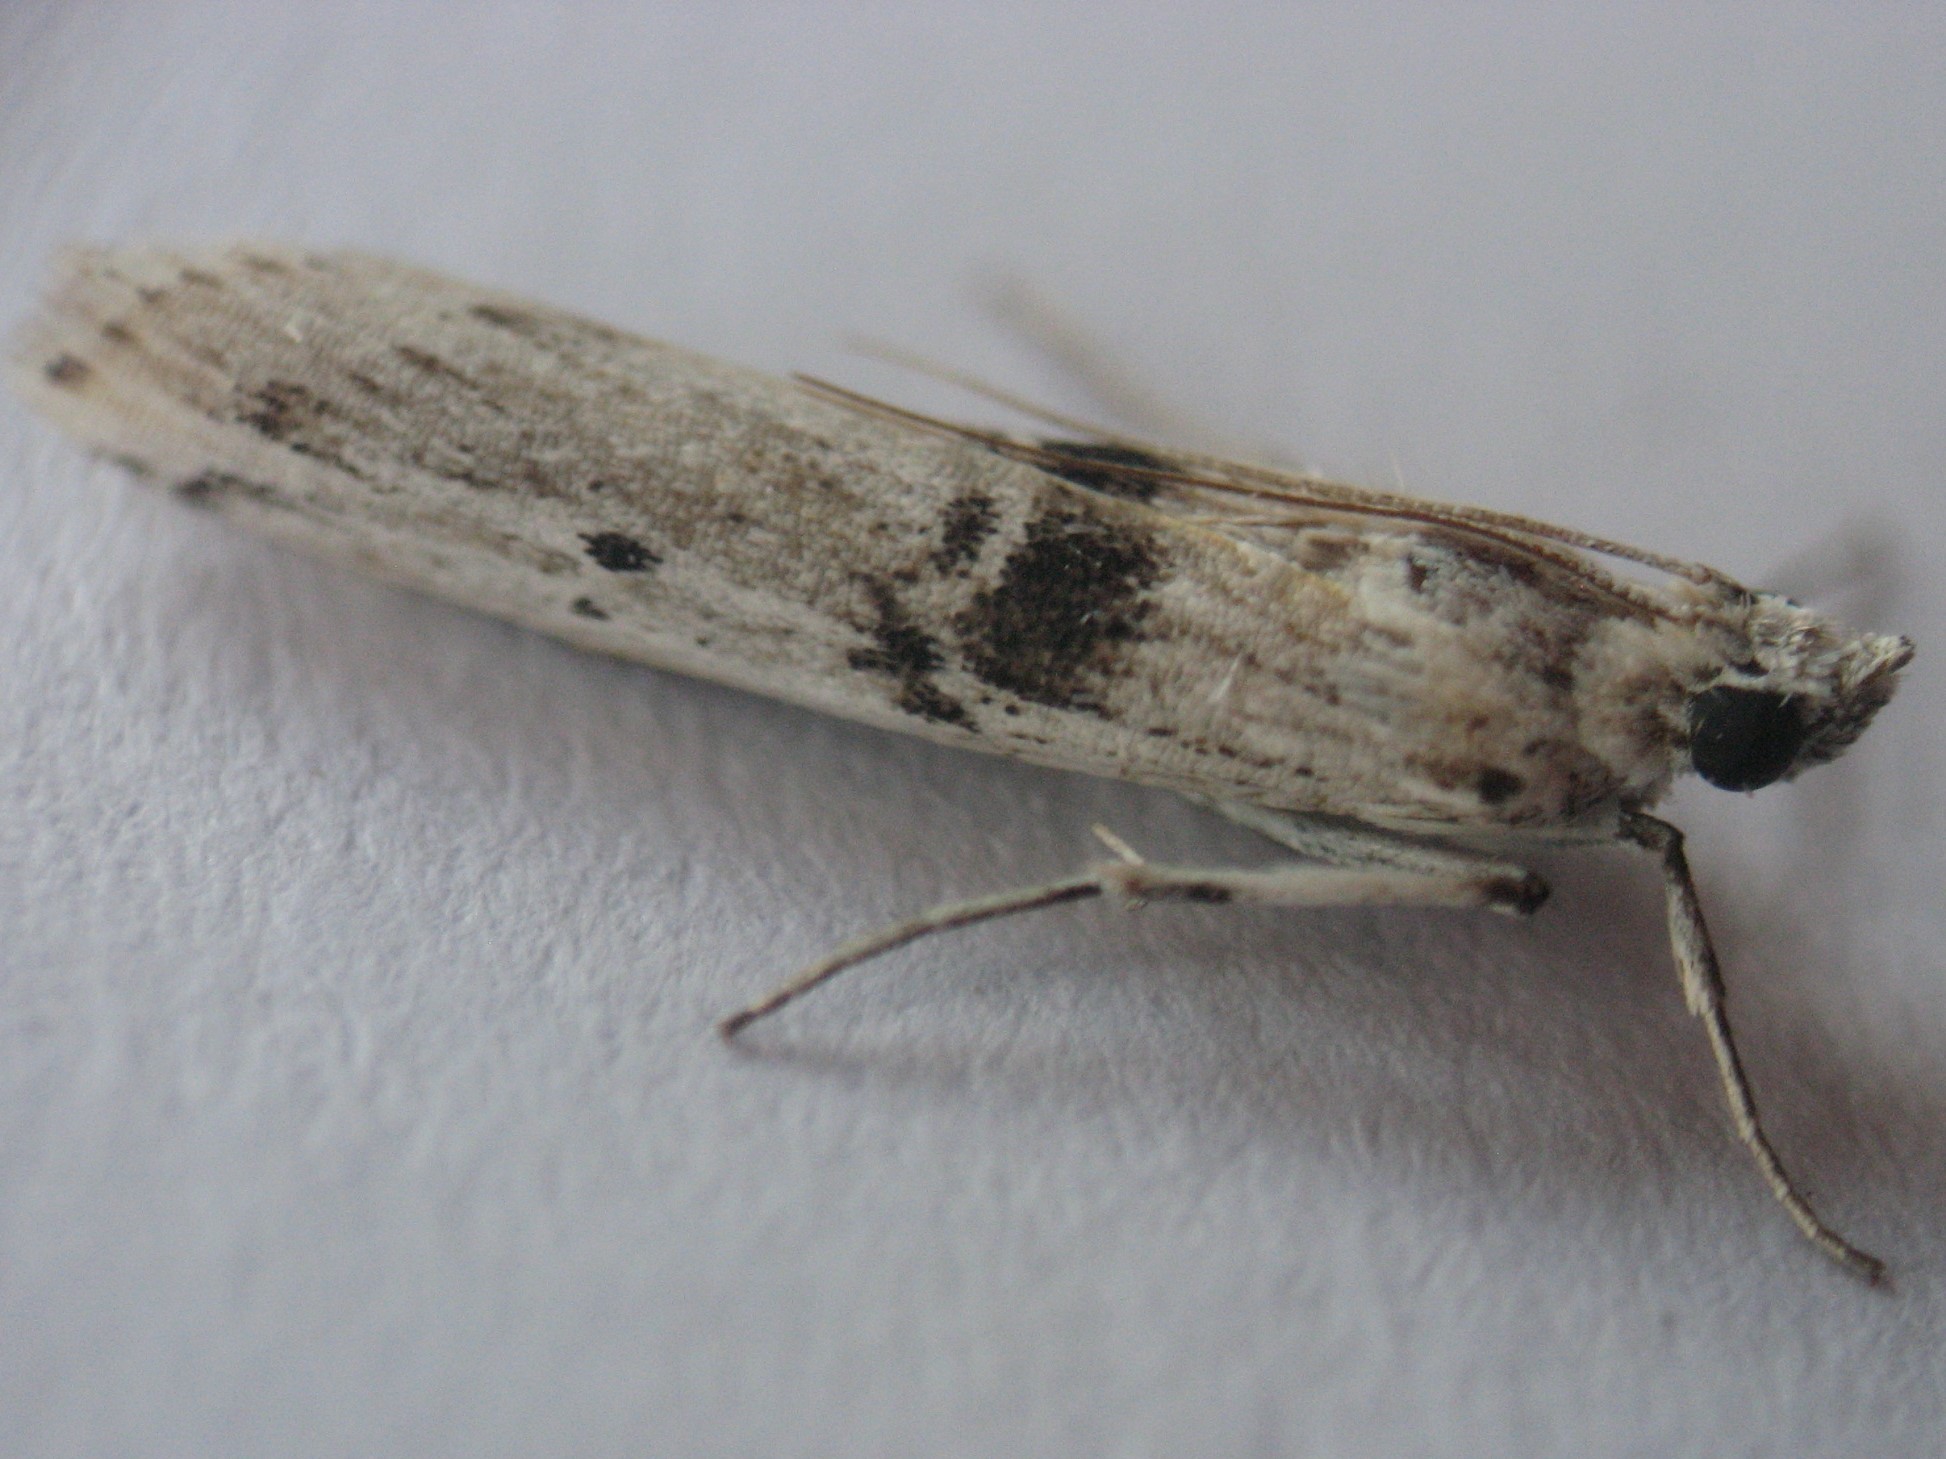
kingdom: Animalia
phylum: Arthropoda
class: Insecta
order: Lepidoptera
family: Pyralidae
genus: Interjectio
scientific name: Interjectio niviella
